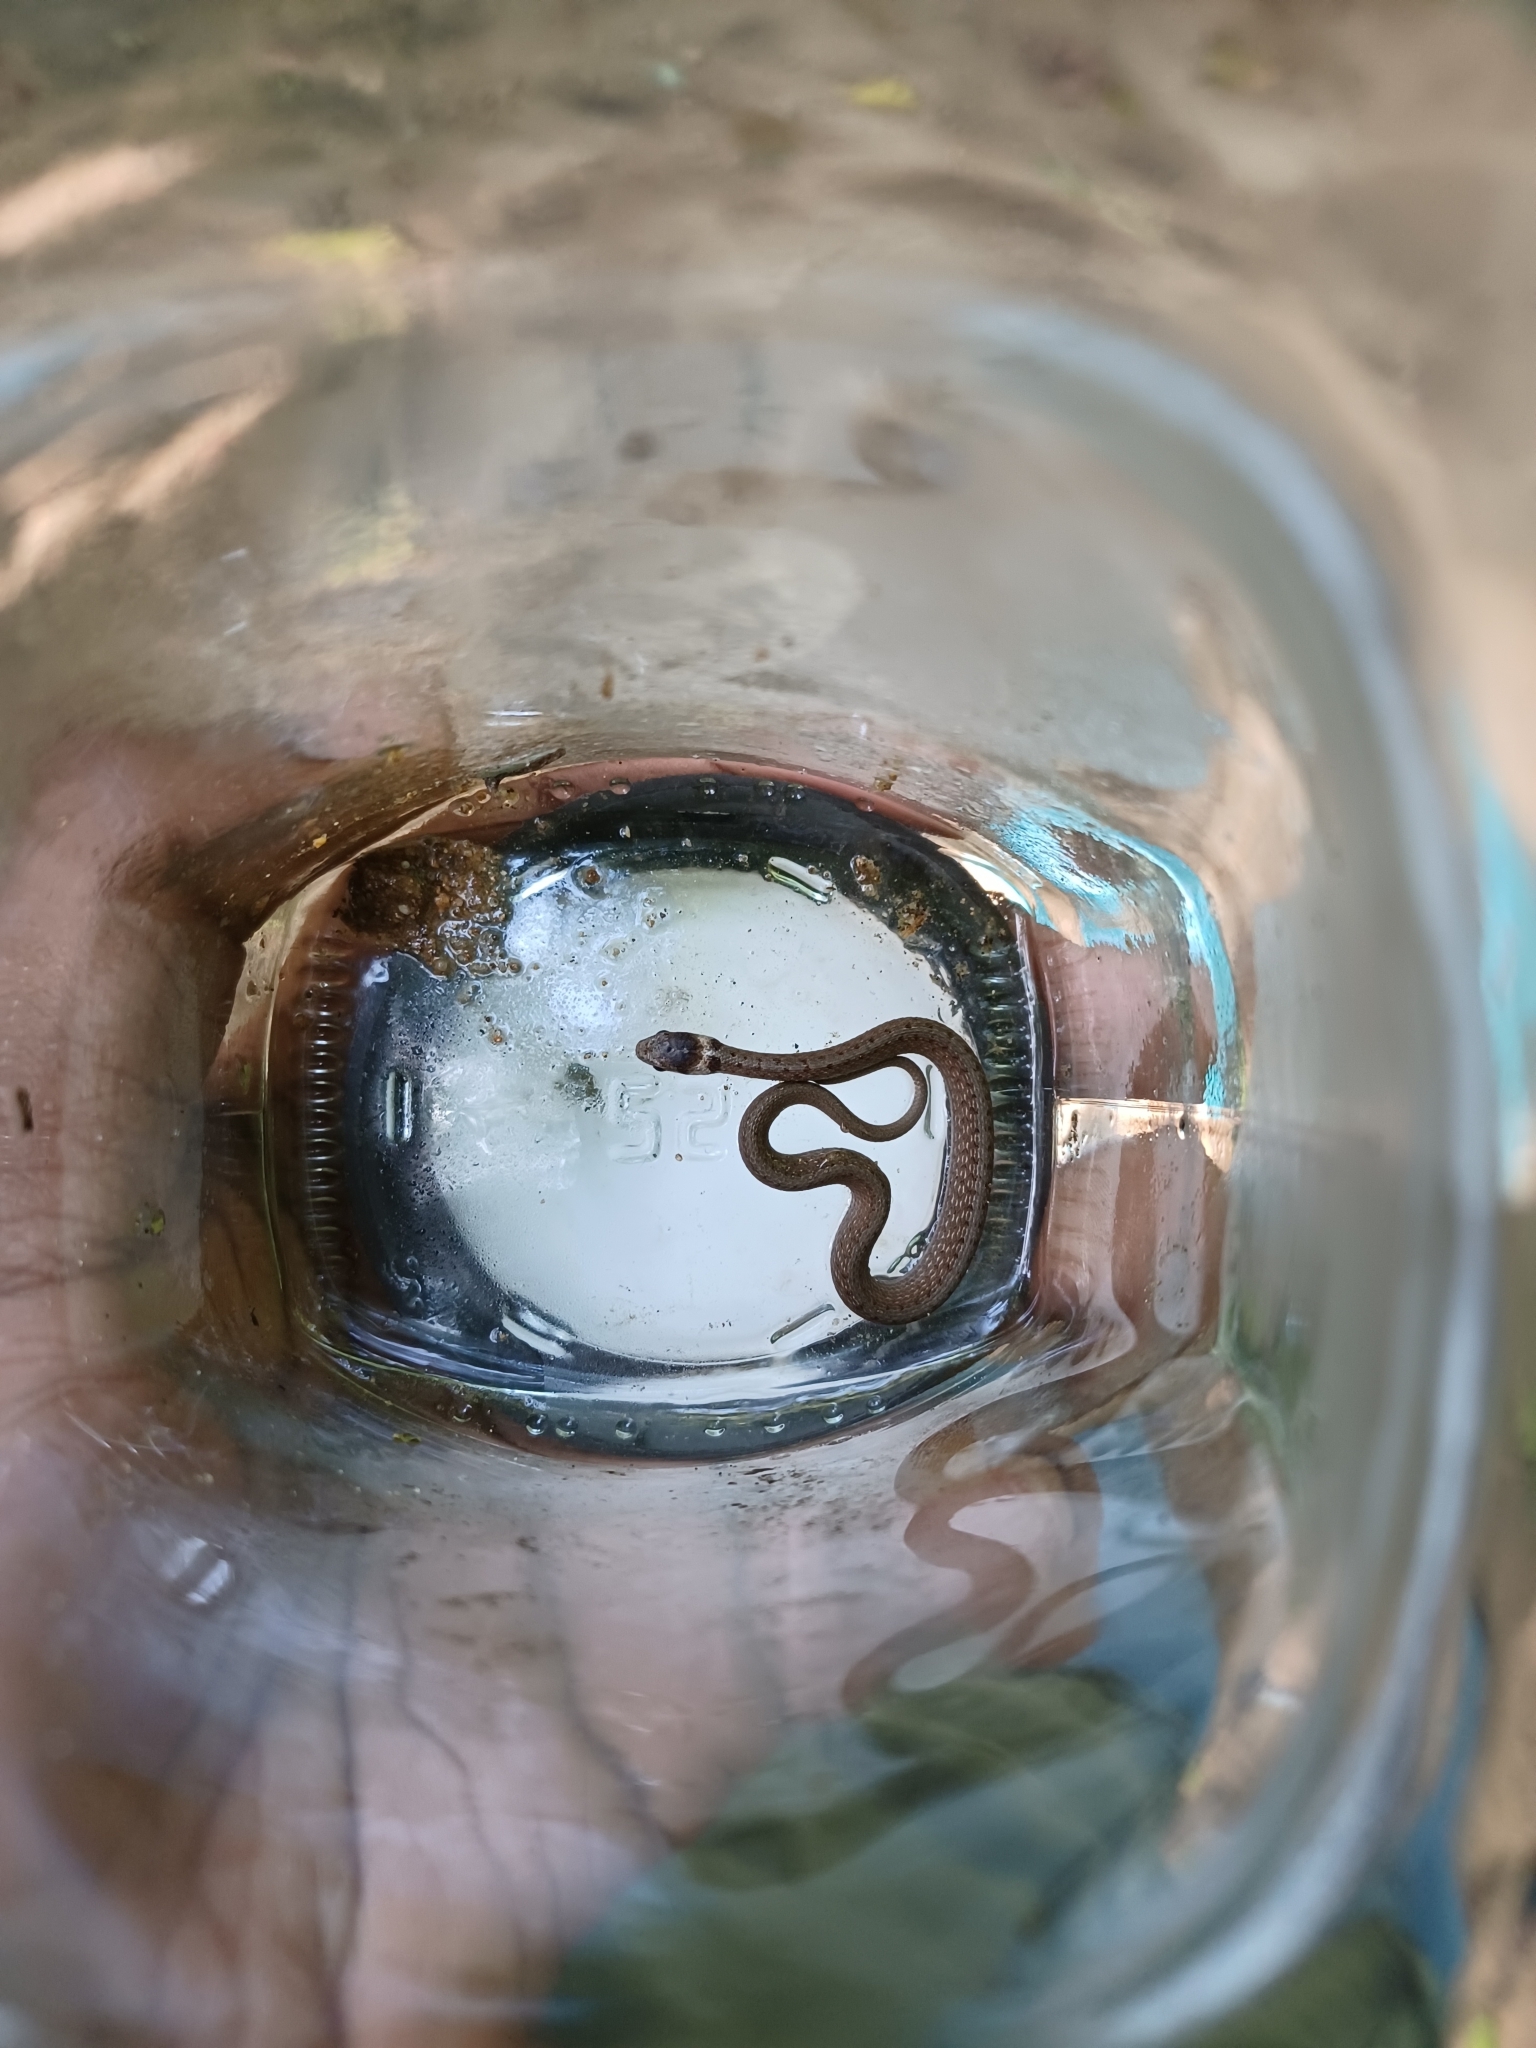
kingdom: Animalia
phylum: Chordata
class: Squamata
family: Colubridae
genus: Storeria
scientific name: Storeria dekayi
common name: (dekay’s) brown snake
